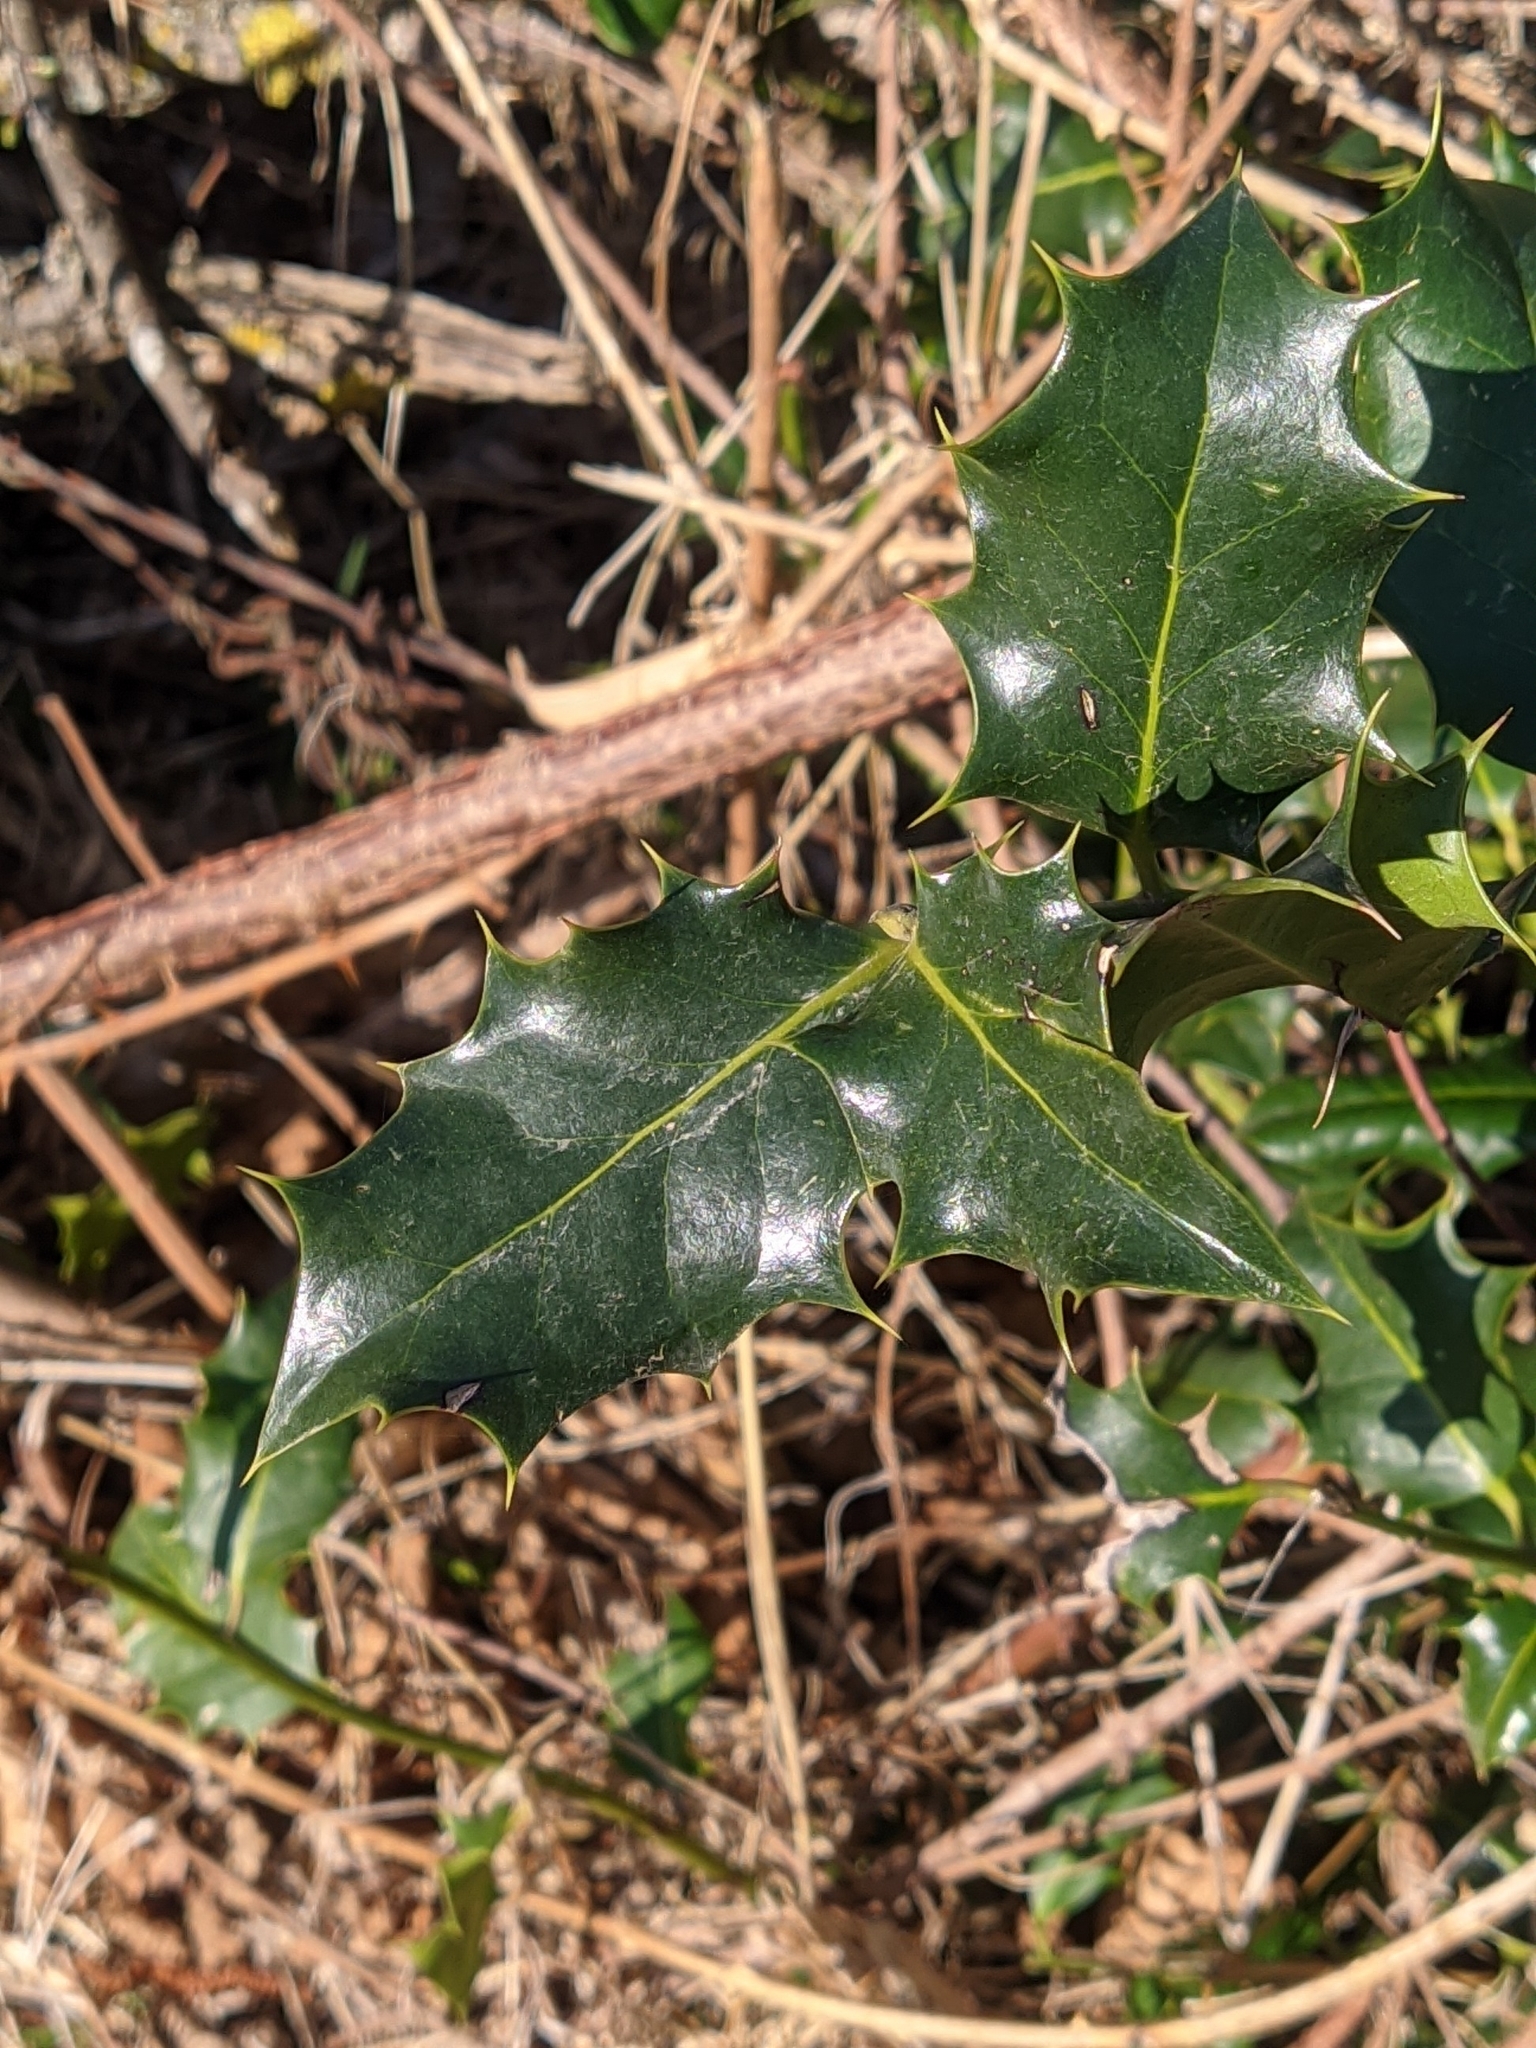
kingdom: Plantae
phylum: Tracheophyta
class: Magnoliopsida
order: Aquifoliales
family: Aquifoliaceae
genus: Ilex
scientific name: Ilex aquifolium
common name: English holly
